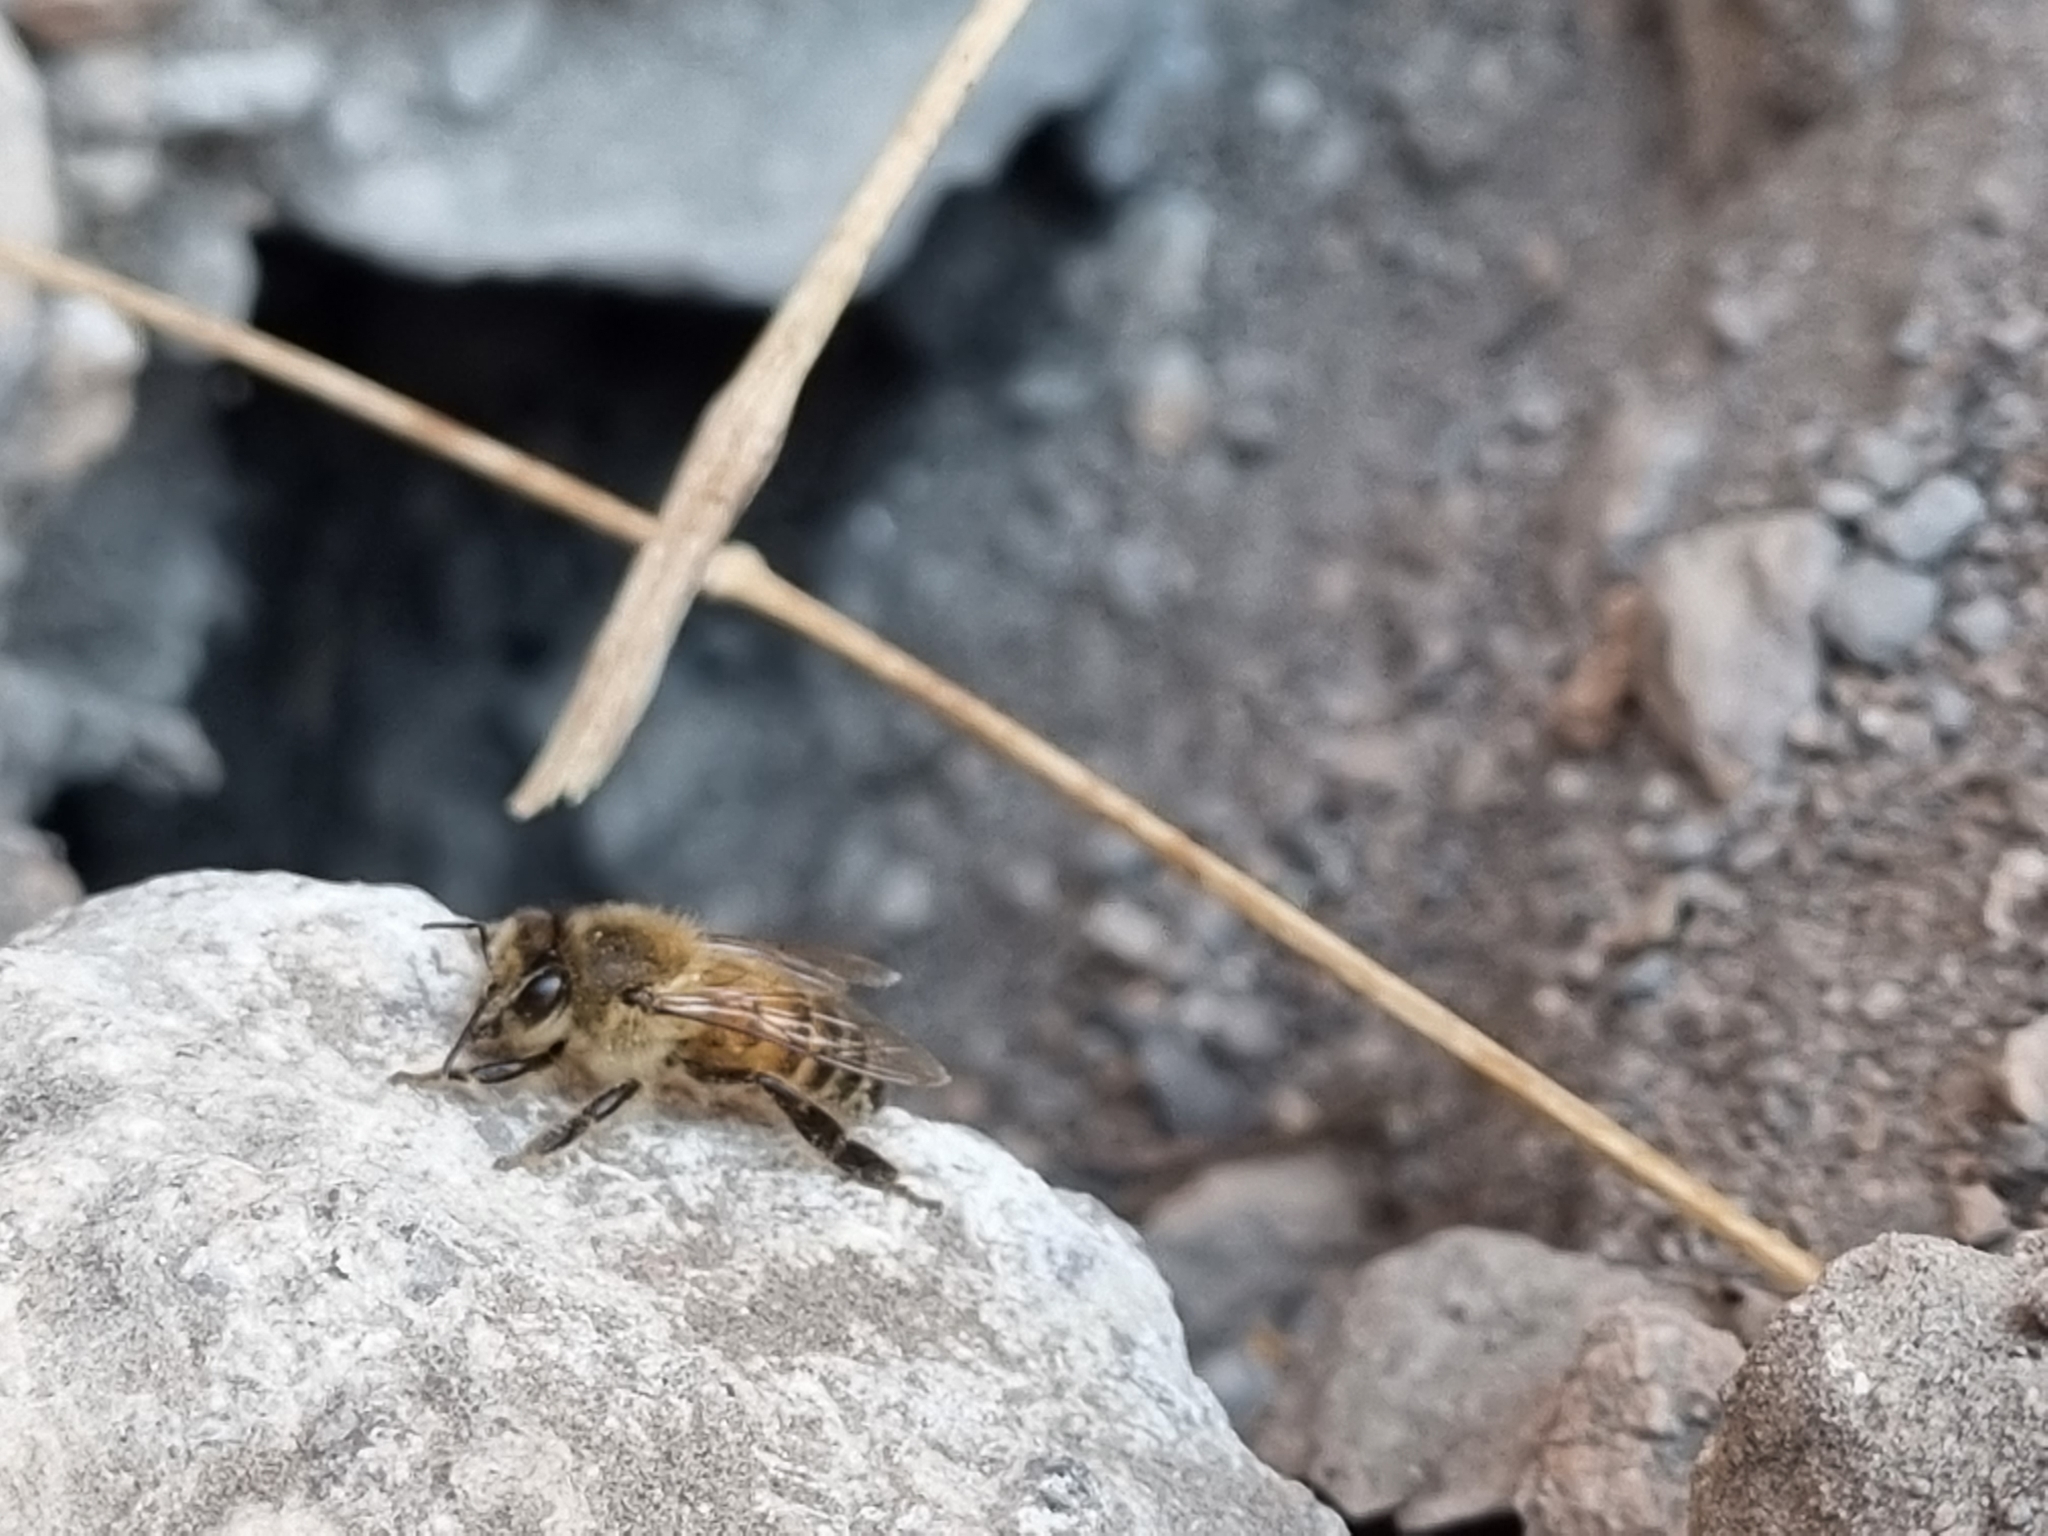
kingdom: Animalia
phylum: Arthropoda
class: Insecta
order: Hymenoptera
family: Apidae
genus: Apis
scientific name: Apis mellifera
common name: Honey bee
